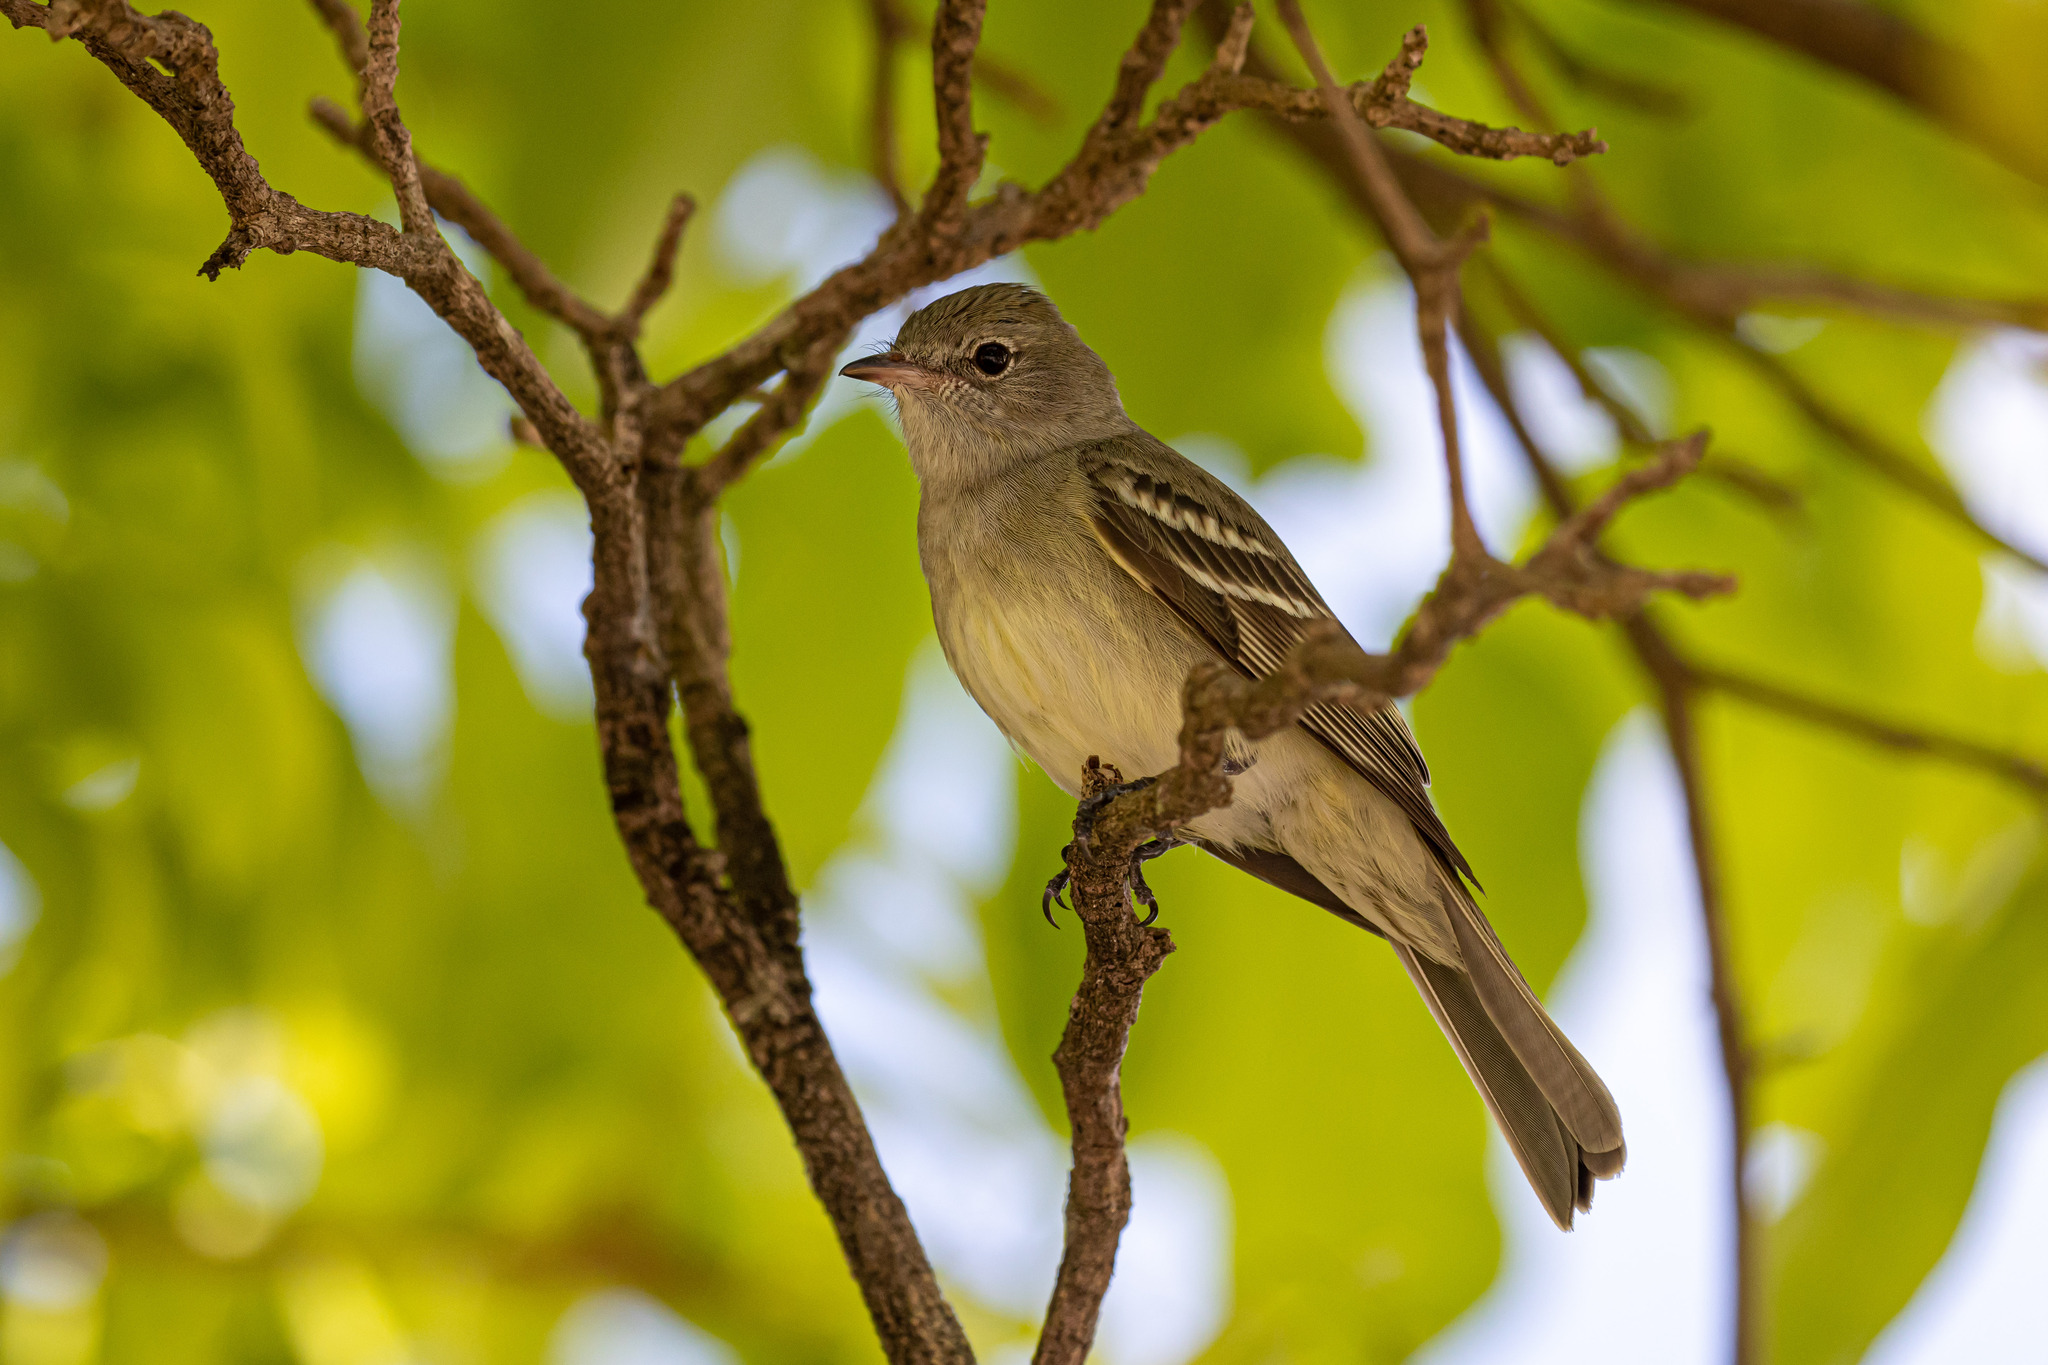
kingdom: Animalia
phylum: Chordata
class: Aves
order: Passeriformes
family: Tyrannidae
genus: Elaenia
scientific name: Elaenia chiriquensis
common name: Lesser elaenia
